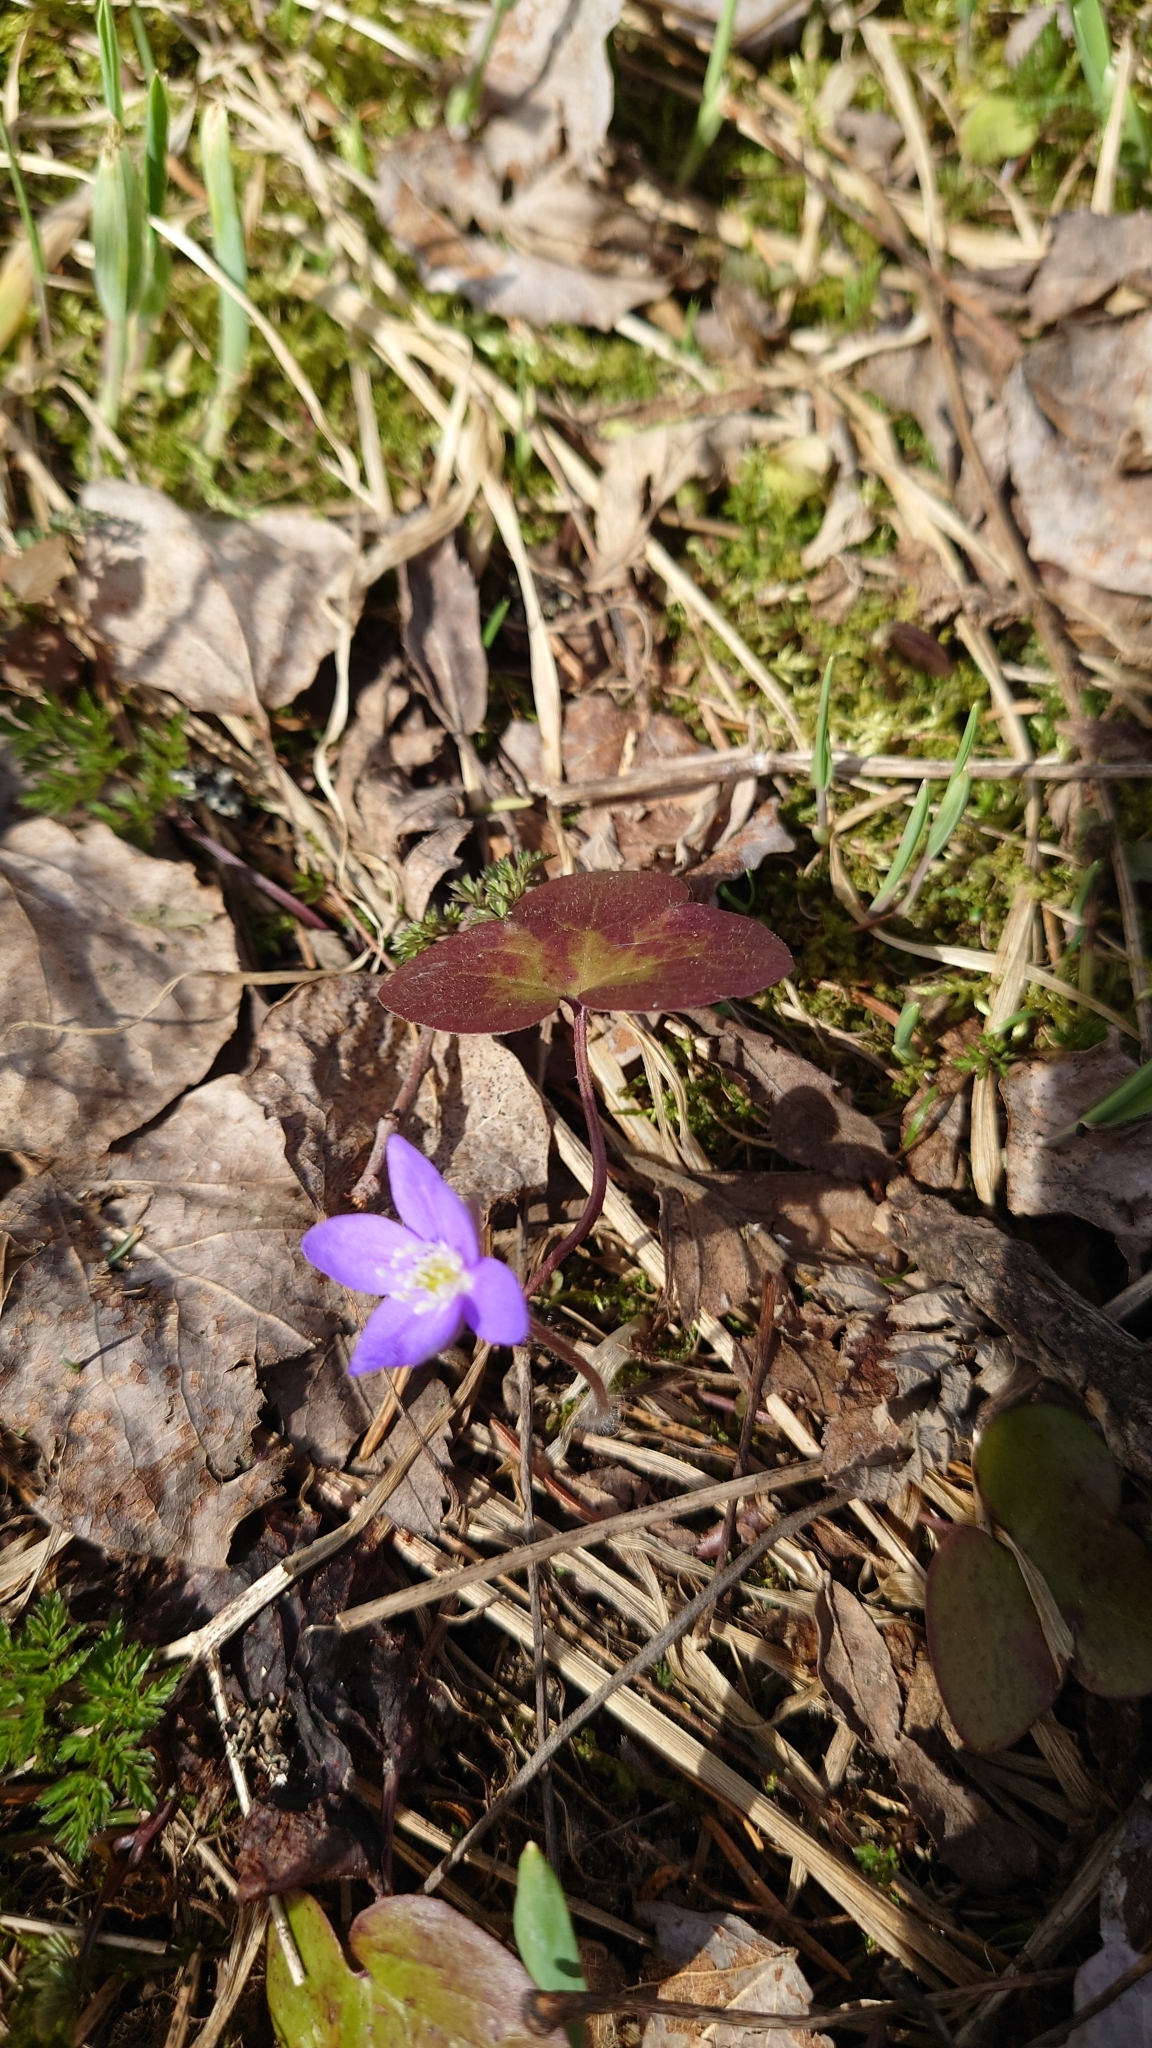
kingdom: Plantae
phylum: Tracheophyta
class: Magnoliopsida
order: Ranunculales
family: Ranunculaceae
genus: Hepatica
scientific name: Hepatica nobilis
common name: Liverleaf
